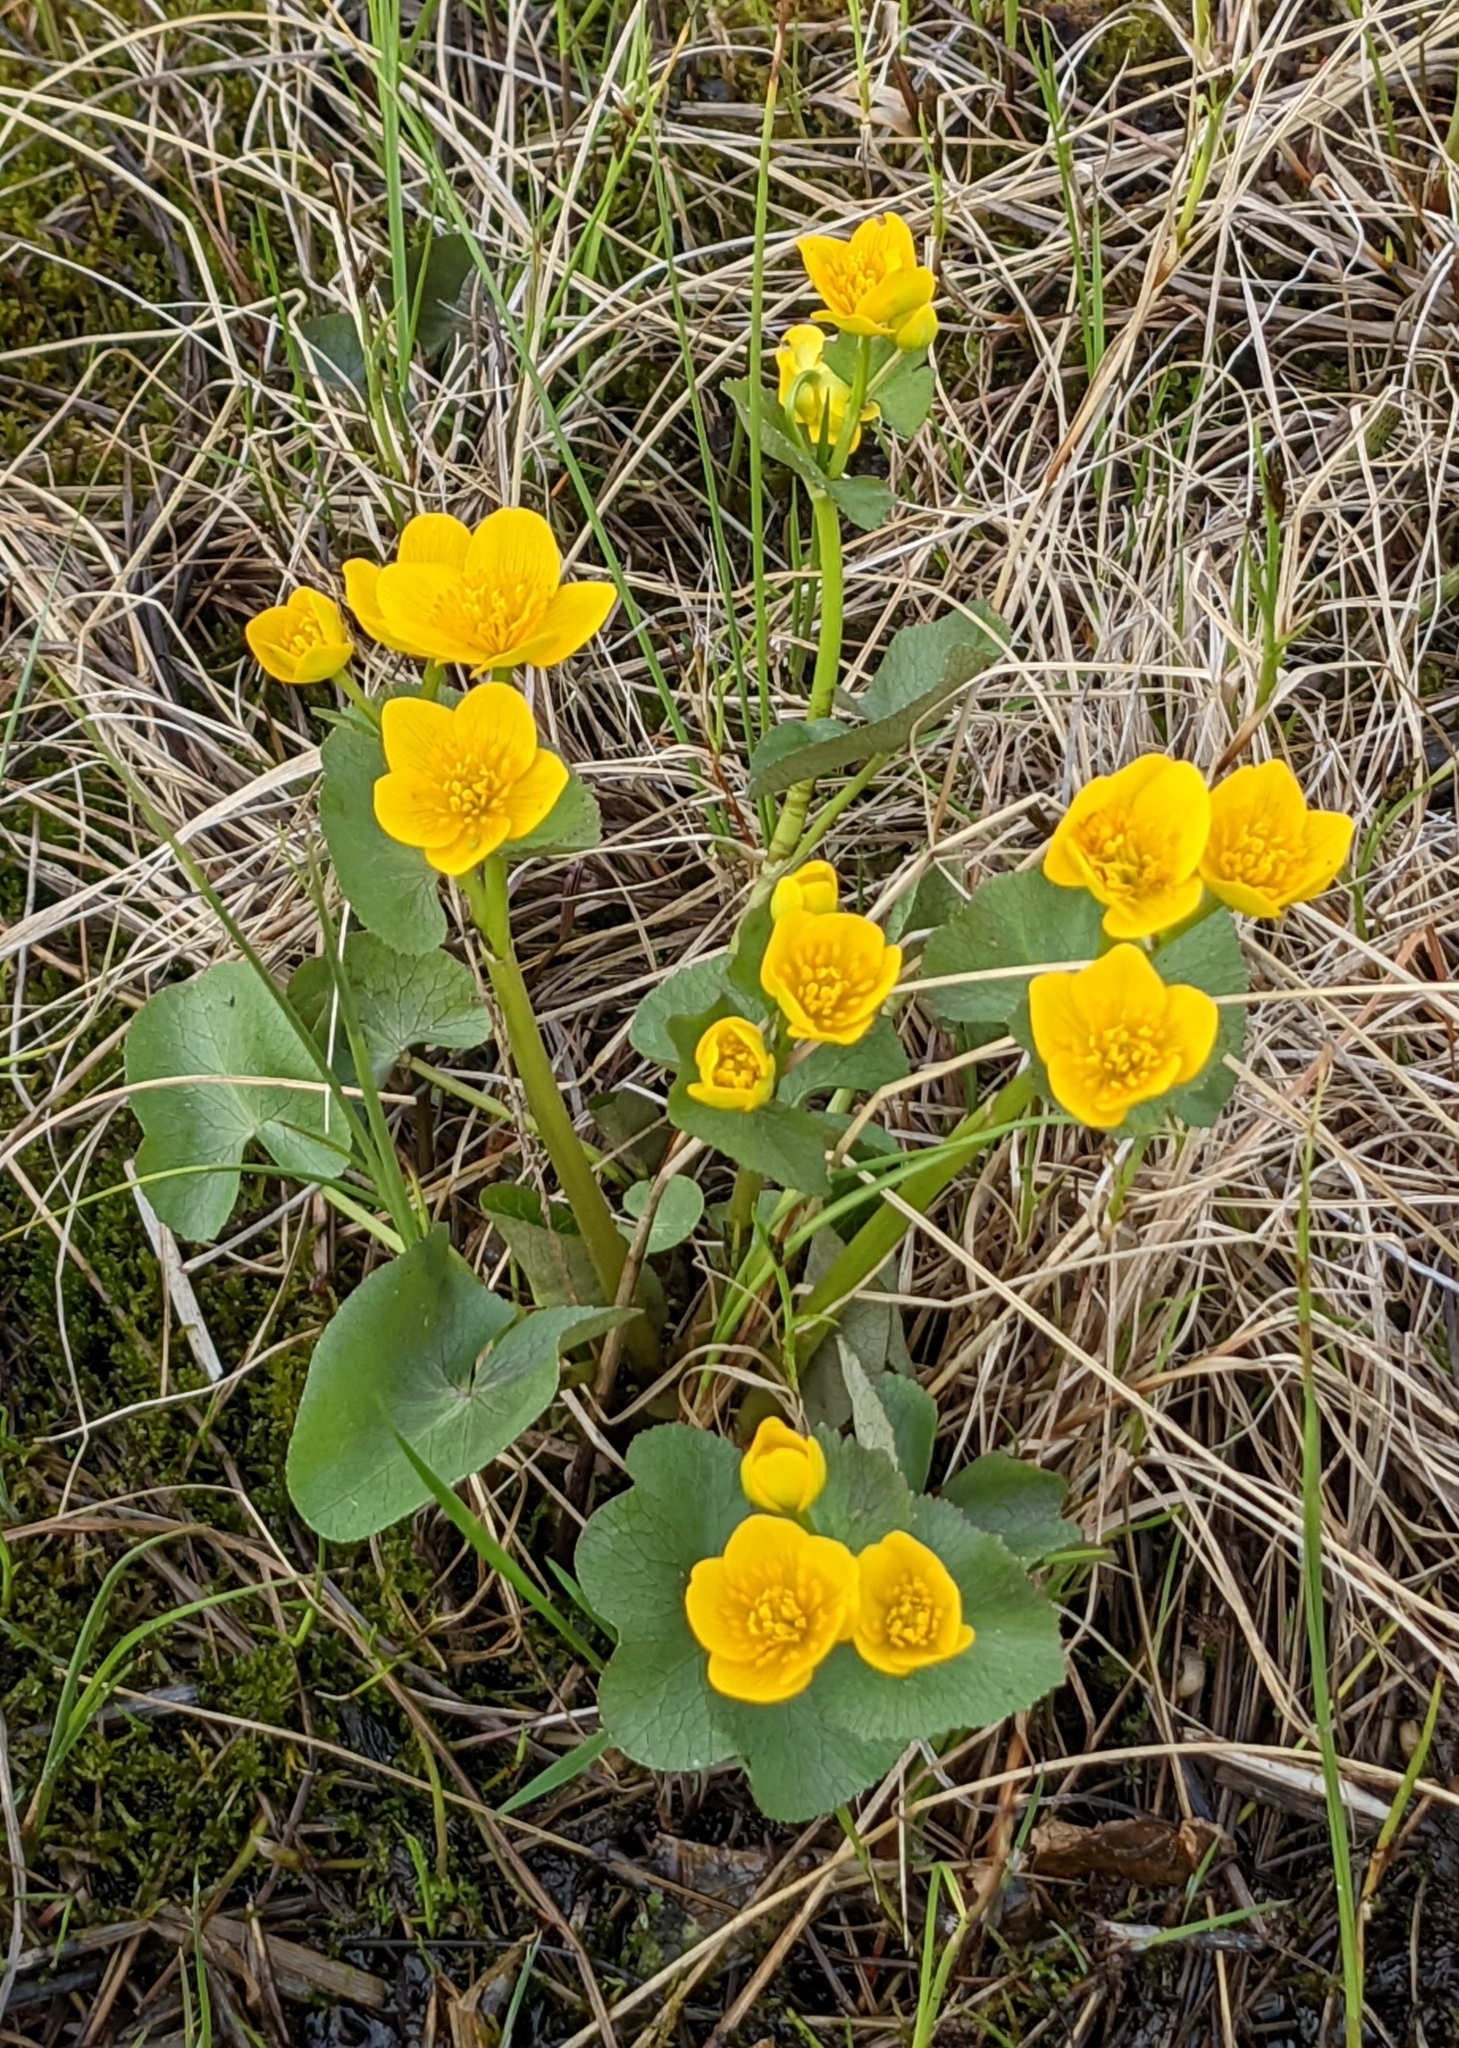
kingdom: Plantae
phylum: Tracheophyta
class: Magnoliopsida
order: Ranunculales
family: Ranunculaceae
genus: Caltha
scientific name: Caltha palustris
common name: Marsh marigold
